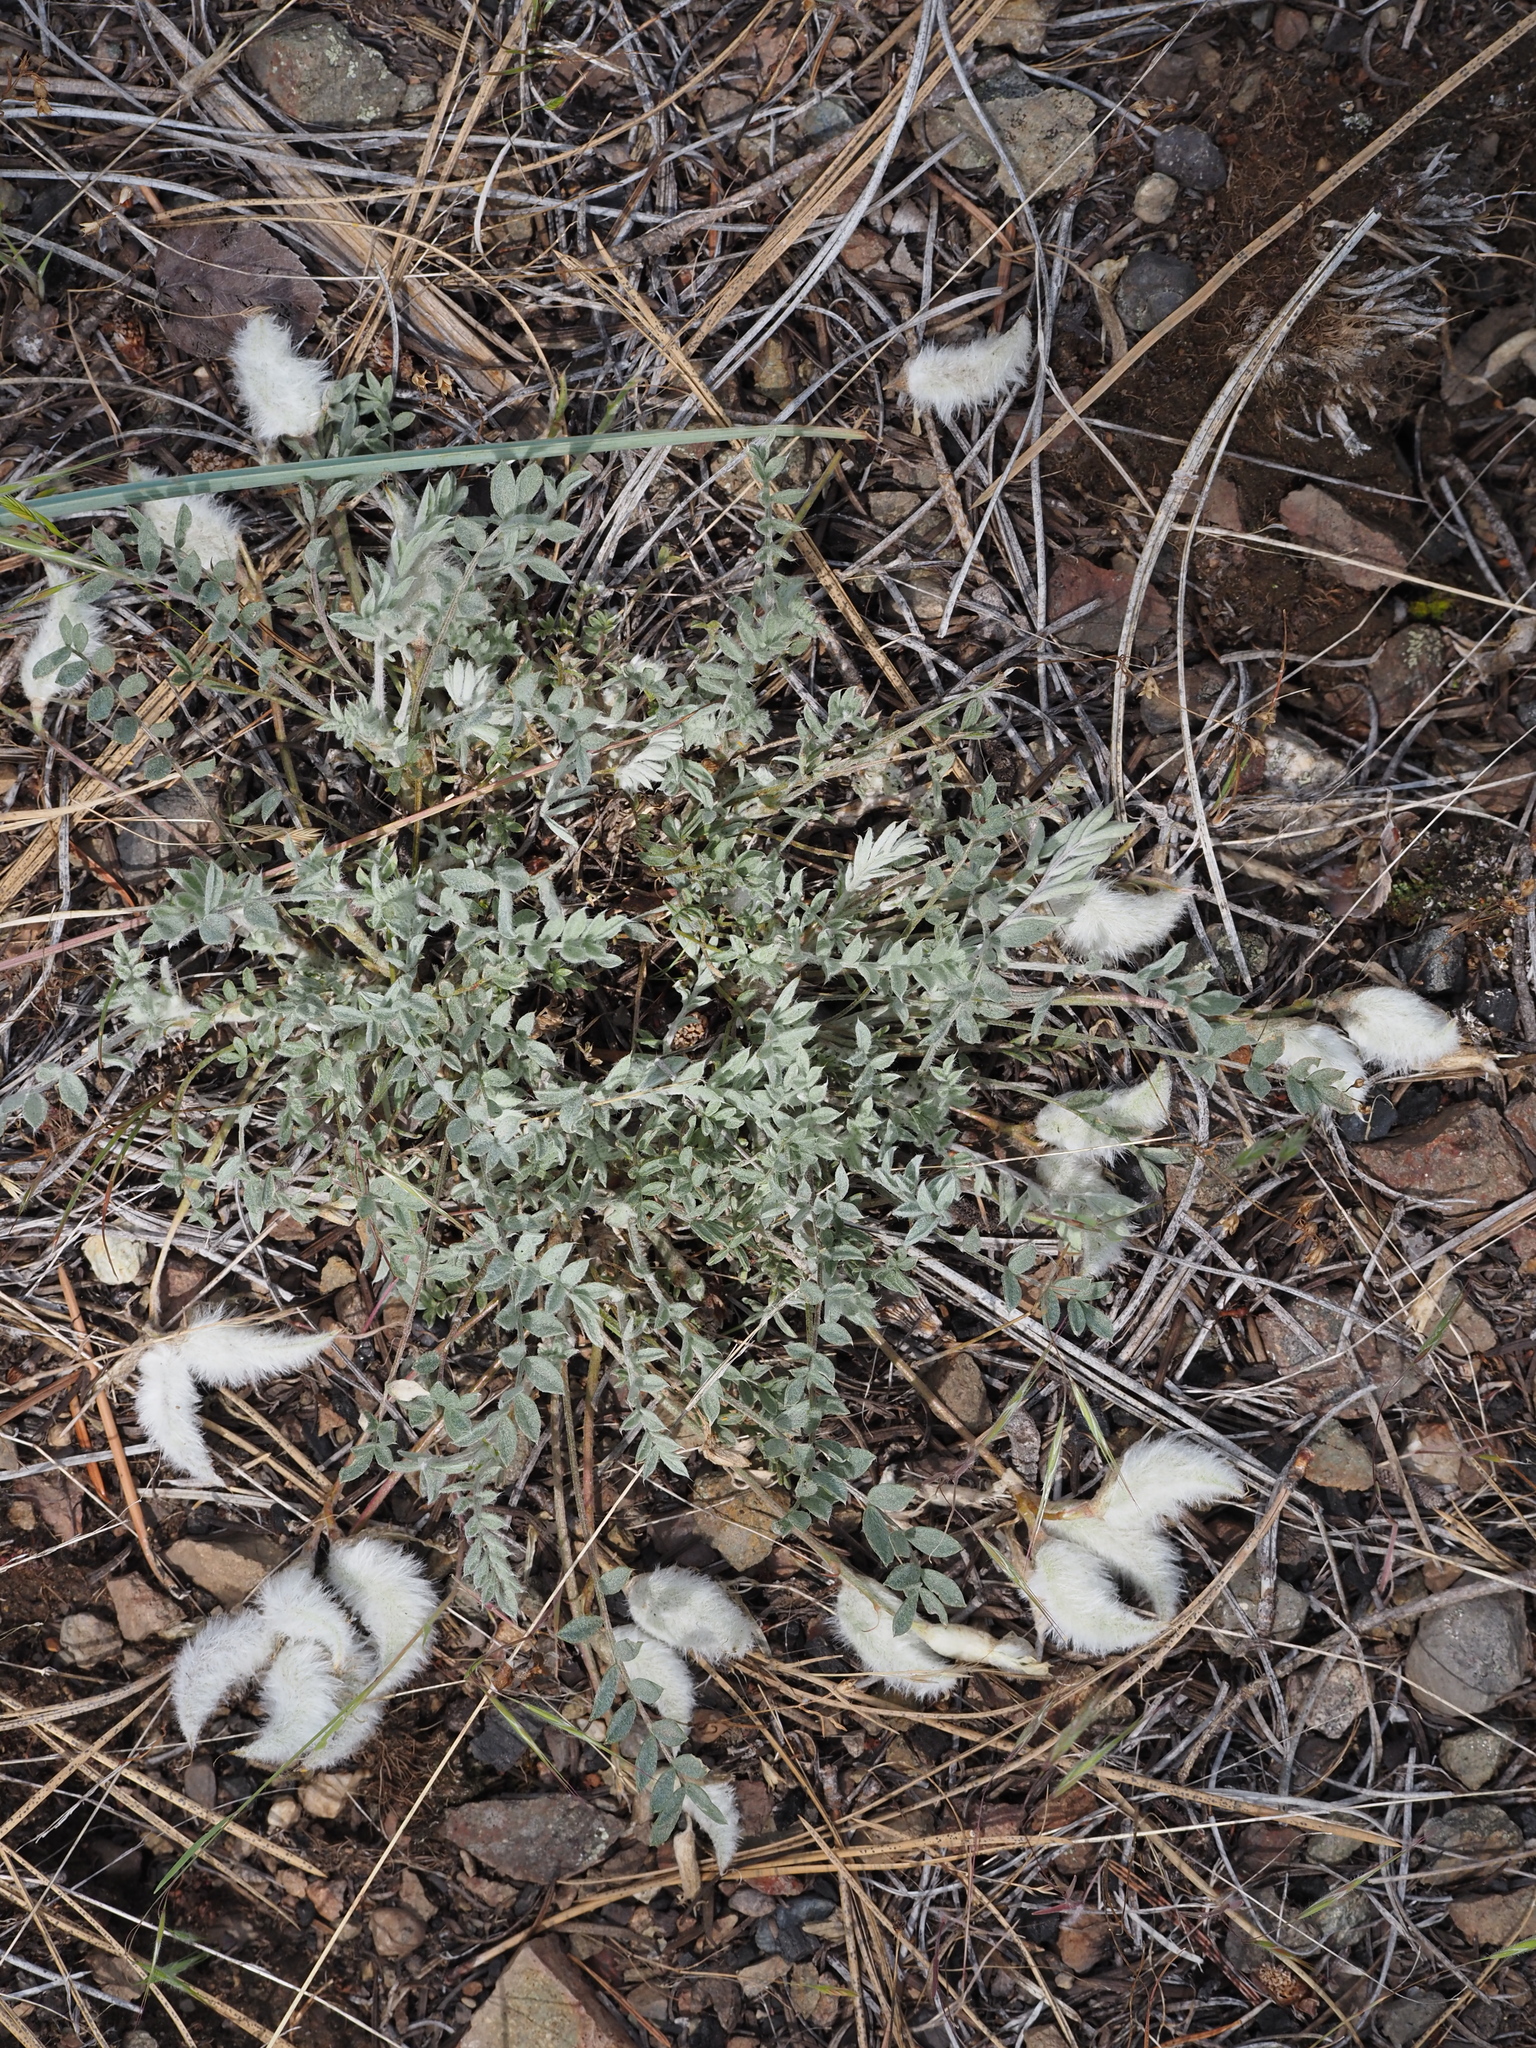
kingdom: Plantae
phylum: Tracheophyta
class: Magnoliopsida
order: Fabales
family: Fabaceae
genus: Astragalus
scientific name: Astragalus purshii
